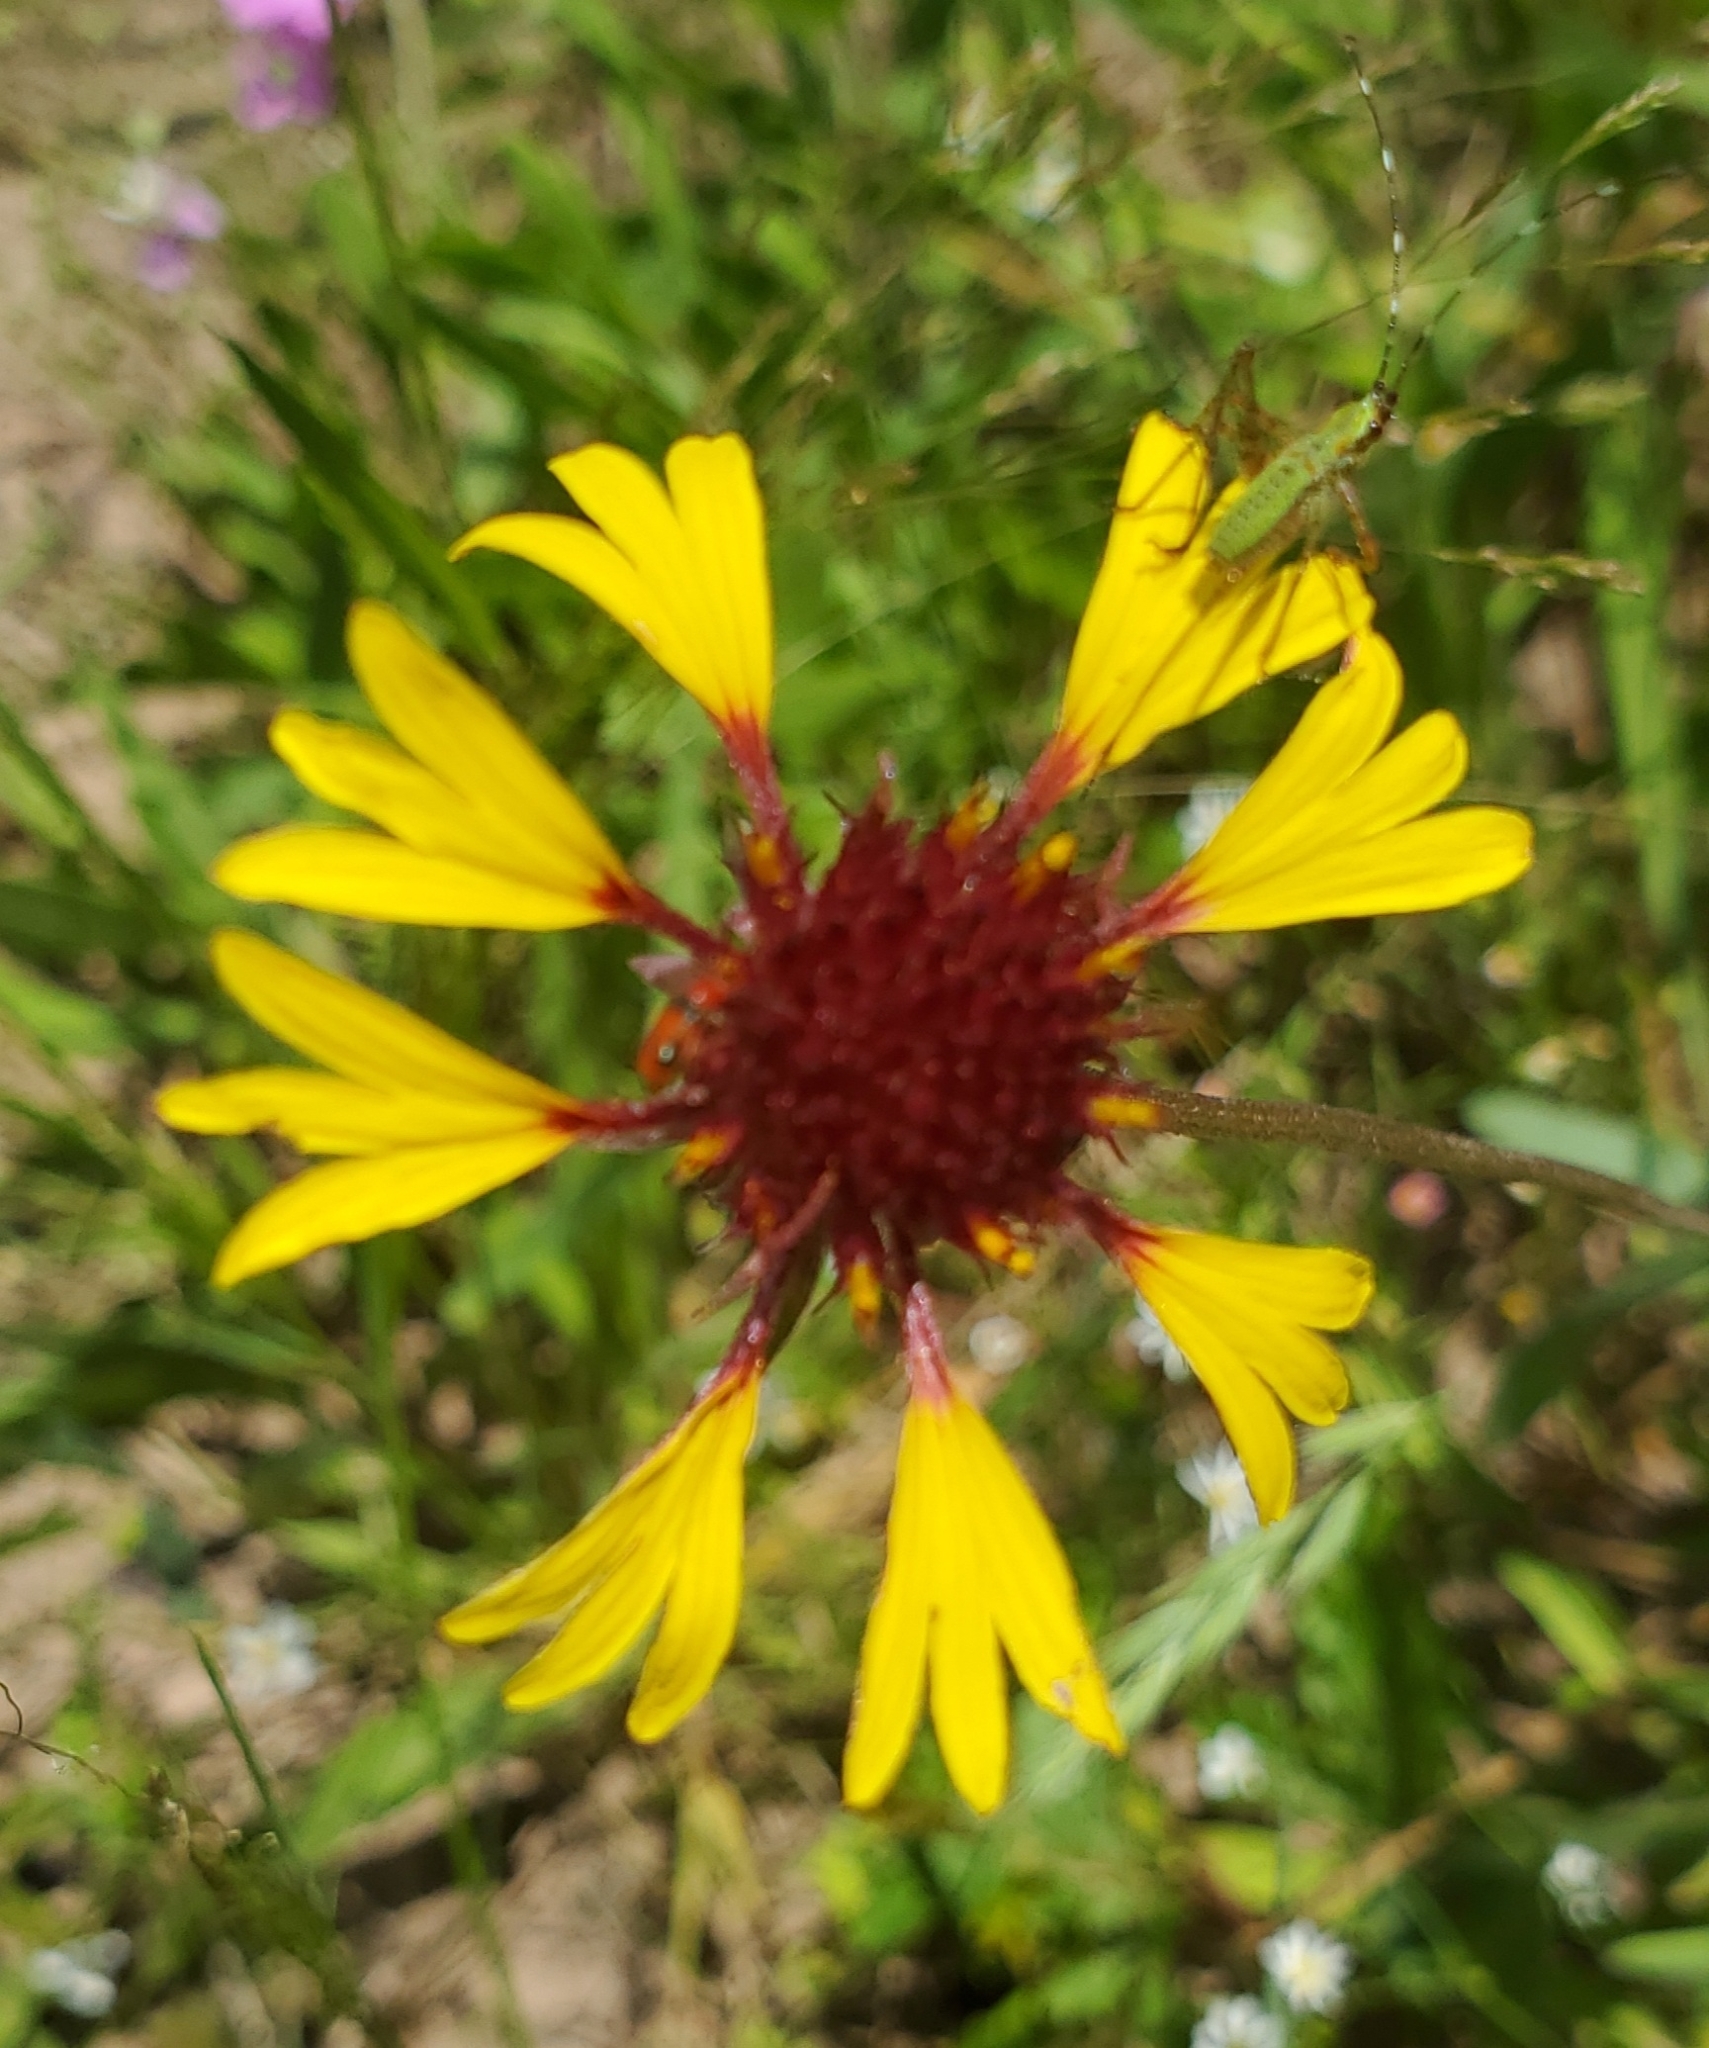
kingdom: Plantae
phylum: Tracheophyta
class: Magnoliopsida
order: Asterales
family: Asteraceae
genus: Gaillardia
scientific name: Gaillardia aestivalis
